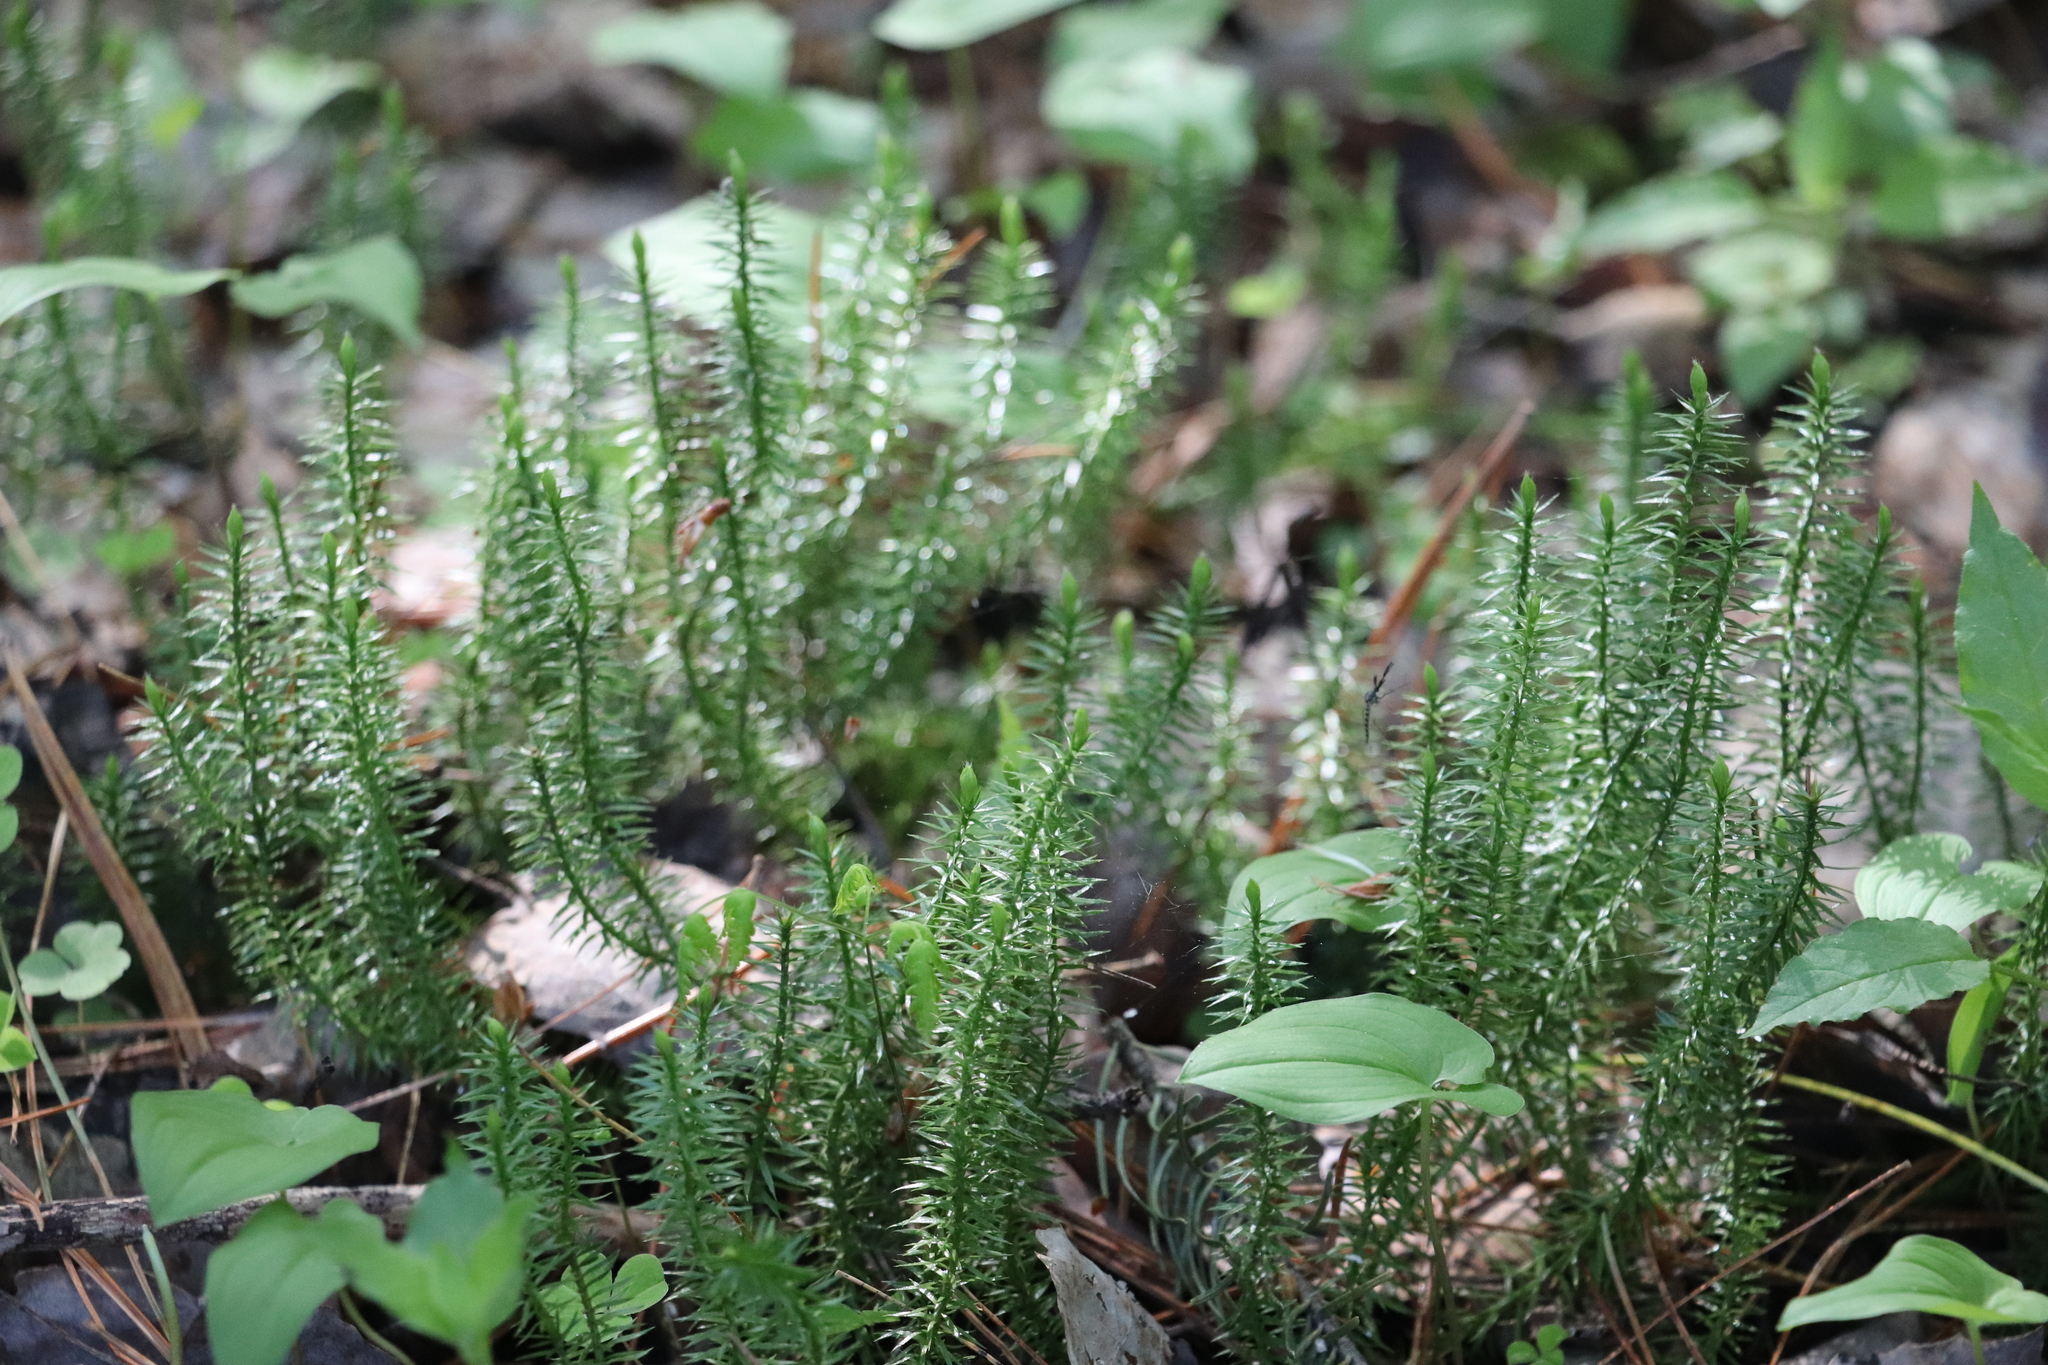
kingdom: Plantae
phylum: Tracheophyta
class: Lycopodiopsida
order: Lycopodiales
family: Lycopodiaceae
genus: Spinulum
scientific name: Spinulum annotinum
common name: Interrupted club-moss
